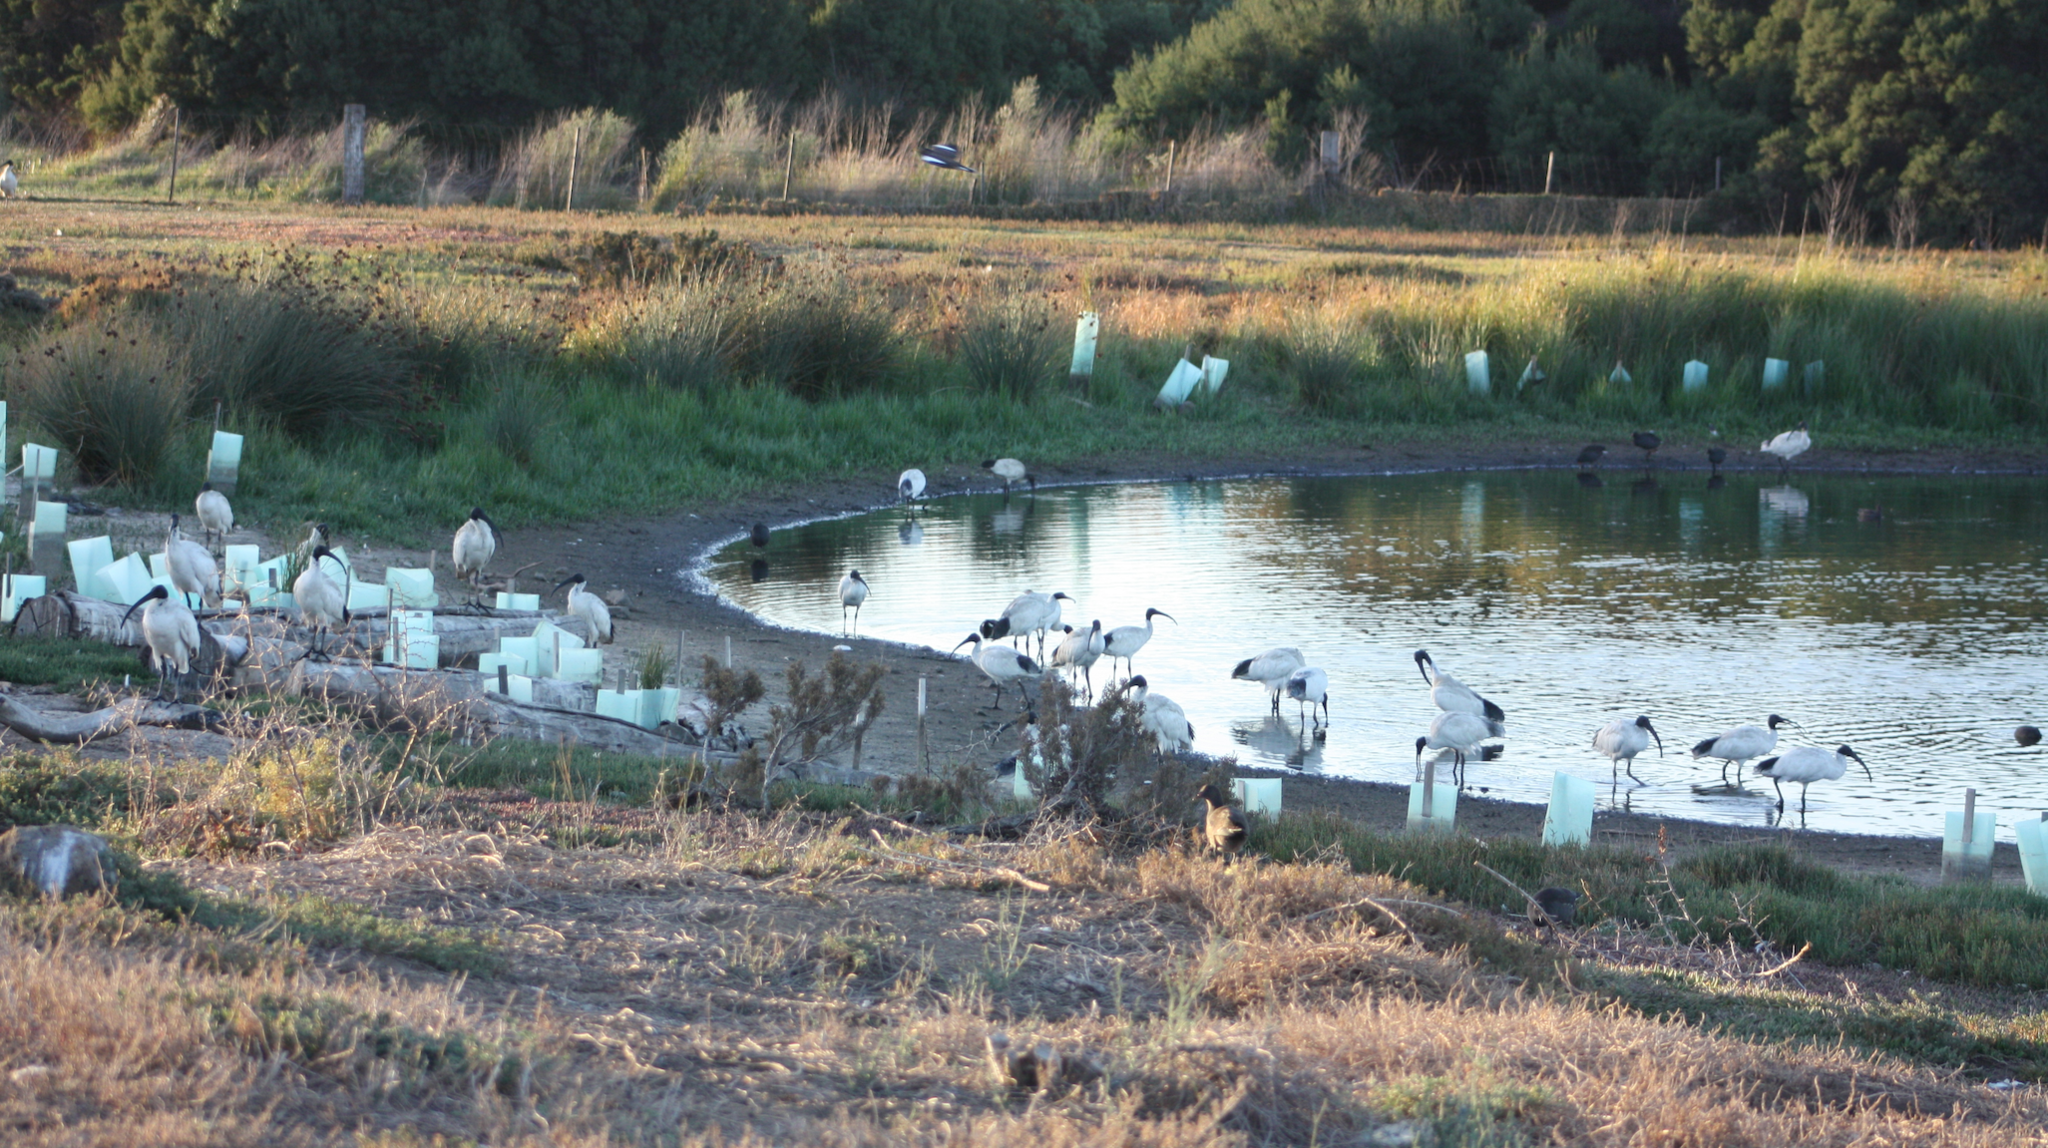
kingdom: Animalia
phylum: Chordata
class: Aves
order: Pelecaniformes
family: Threskiornithidae
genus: Threskiornis
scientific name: Threskiornis molucca
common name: Australian white ibis
